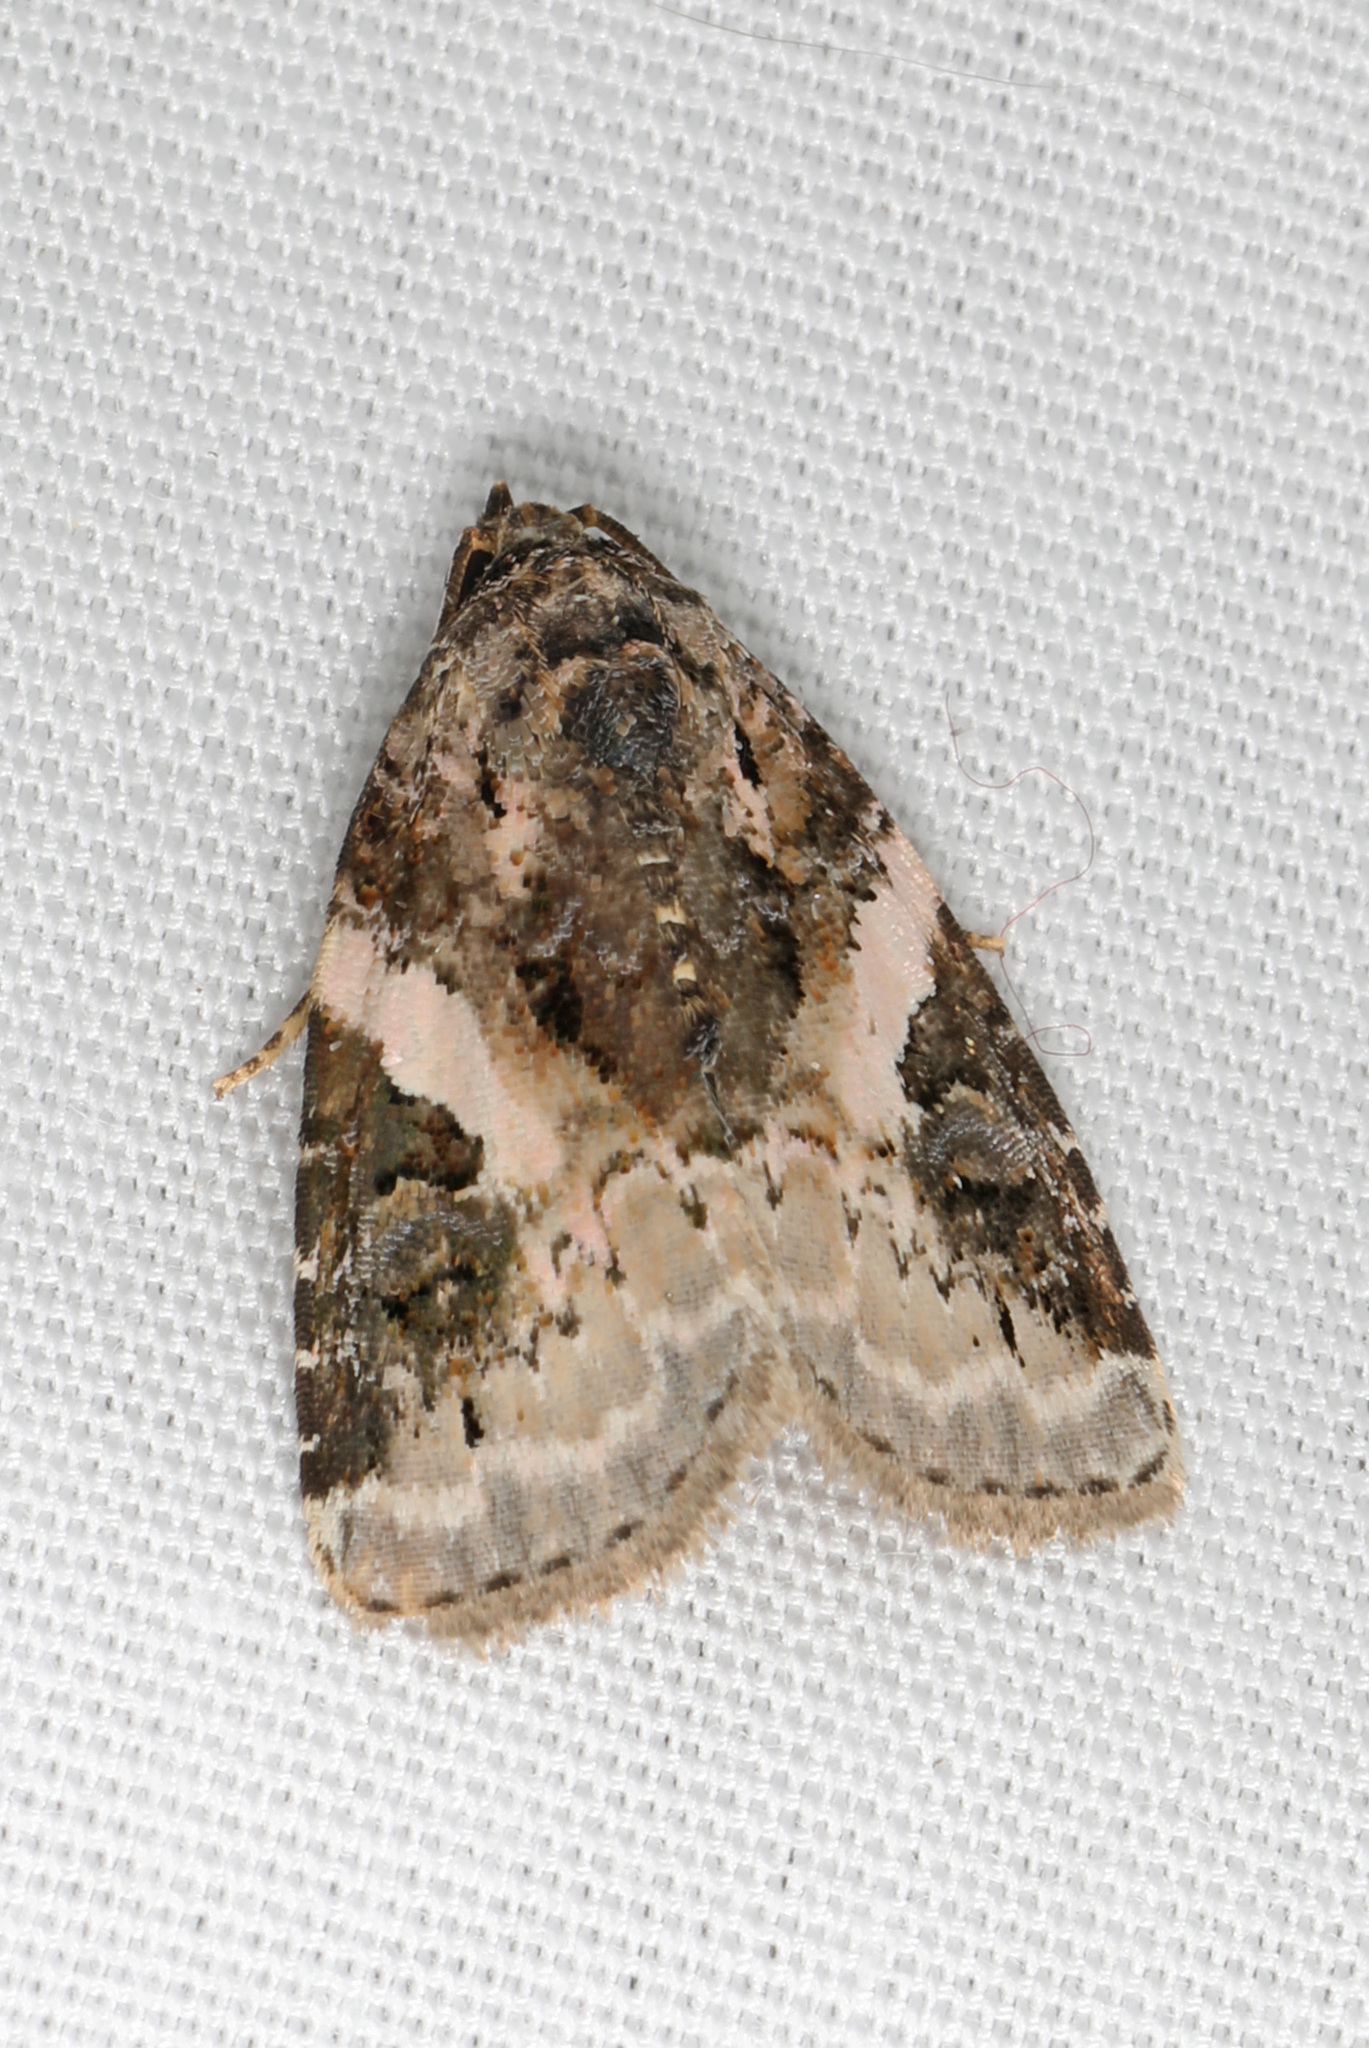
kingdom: Animalia
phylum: Arthropoda
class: Insecta
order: Lepidoptera
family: Noctuidae
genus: Pseudeustrotia
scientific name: Pseudeustrotia carneola
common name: Pink-barred lithacodia moth
